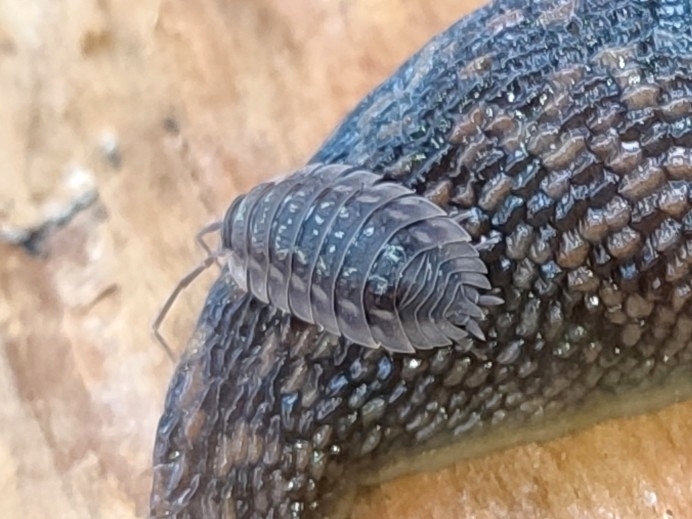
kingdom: Animalia
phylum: Arthropoda
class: Malacostraca
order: Isopoda
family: Oniscidae
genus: Oniscus
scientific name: Oniscus asellus
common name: Common shiny woodlouse
